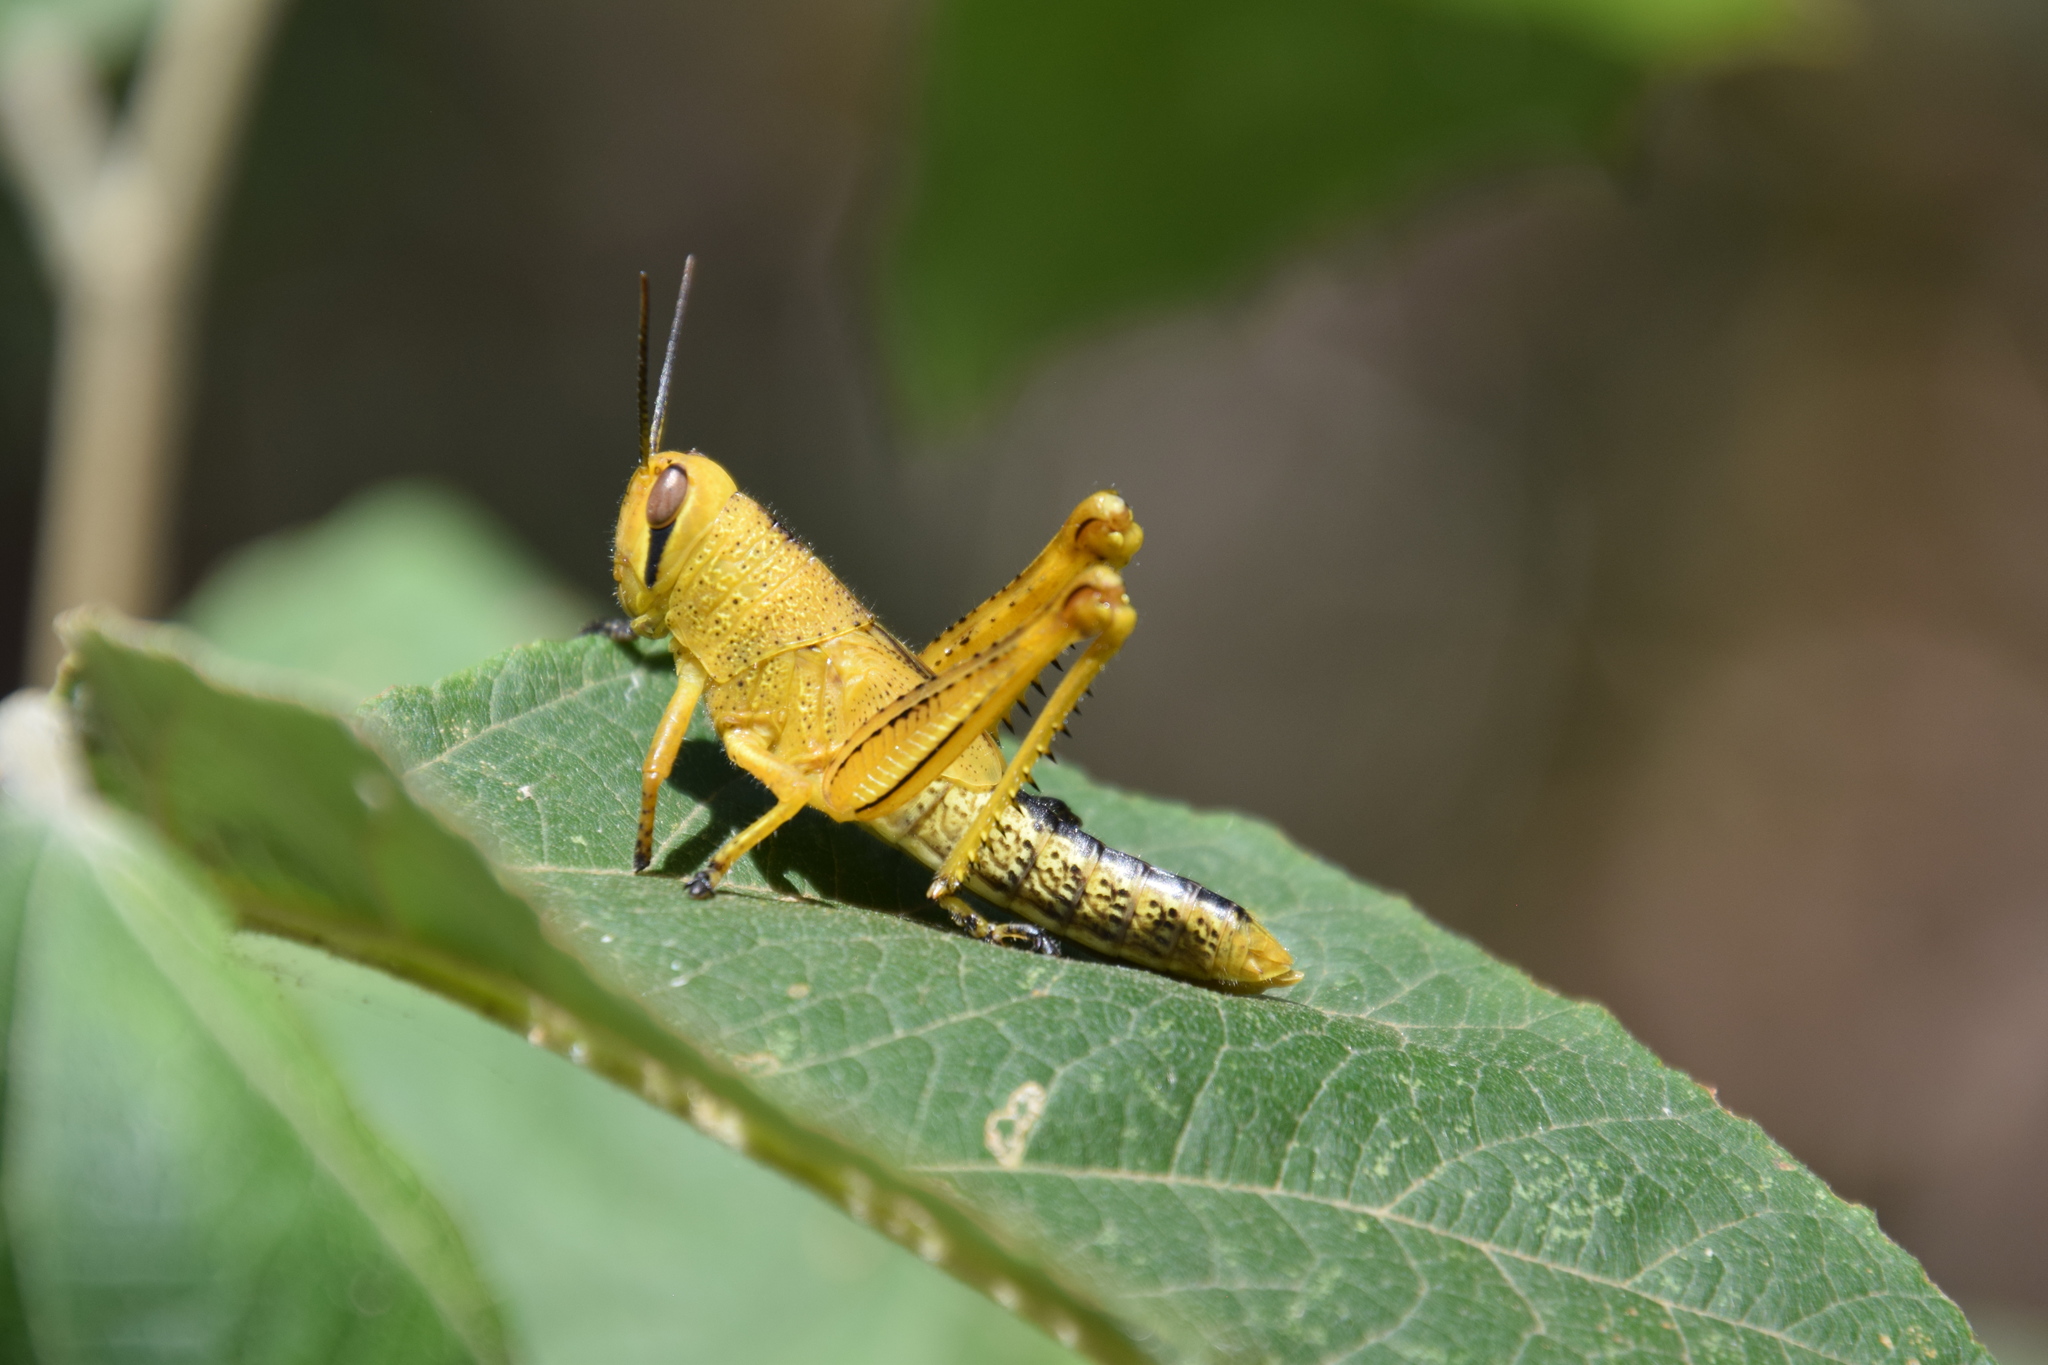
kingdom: Animalia
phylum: Arthropoda
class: Insecta
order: Orthoptera
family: Acrididae
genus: Valanga
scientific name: Valanga irregularis
